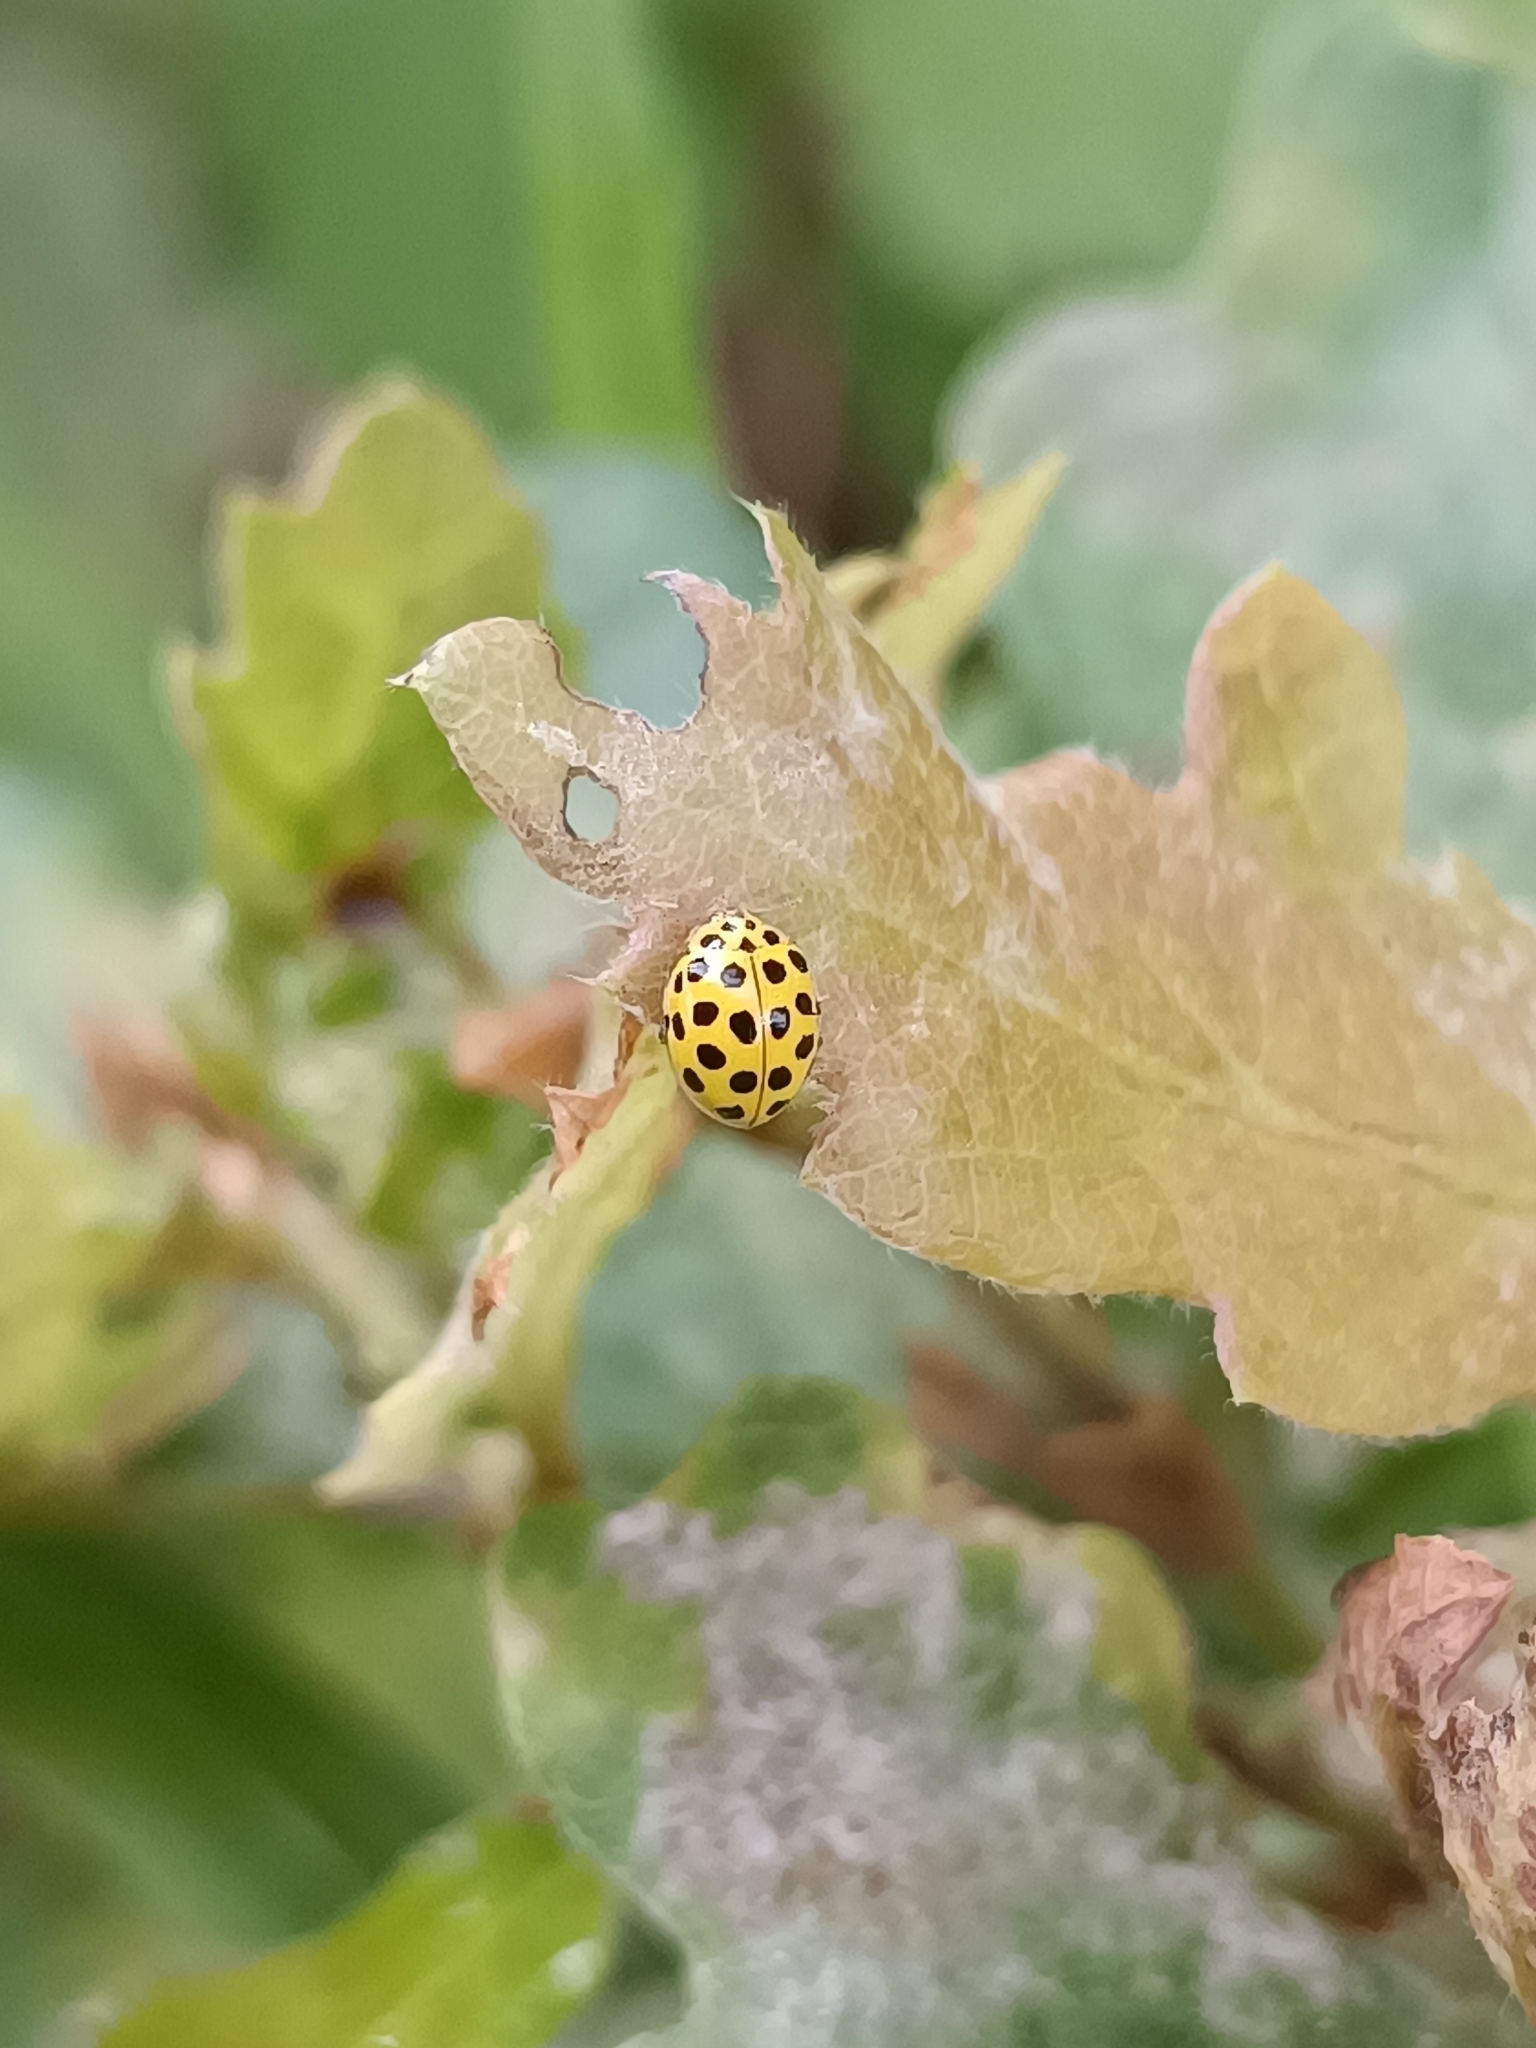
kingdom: Animalia
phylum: Arthropoda
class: Insecta
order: Coleoptera
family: Coccinellidae
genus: Psyllobora
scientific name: Psyllobora vigintiduopunctata
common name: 22-spot ladybird
